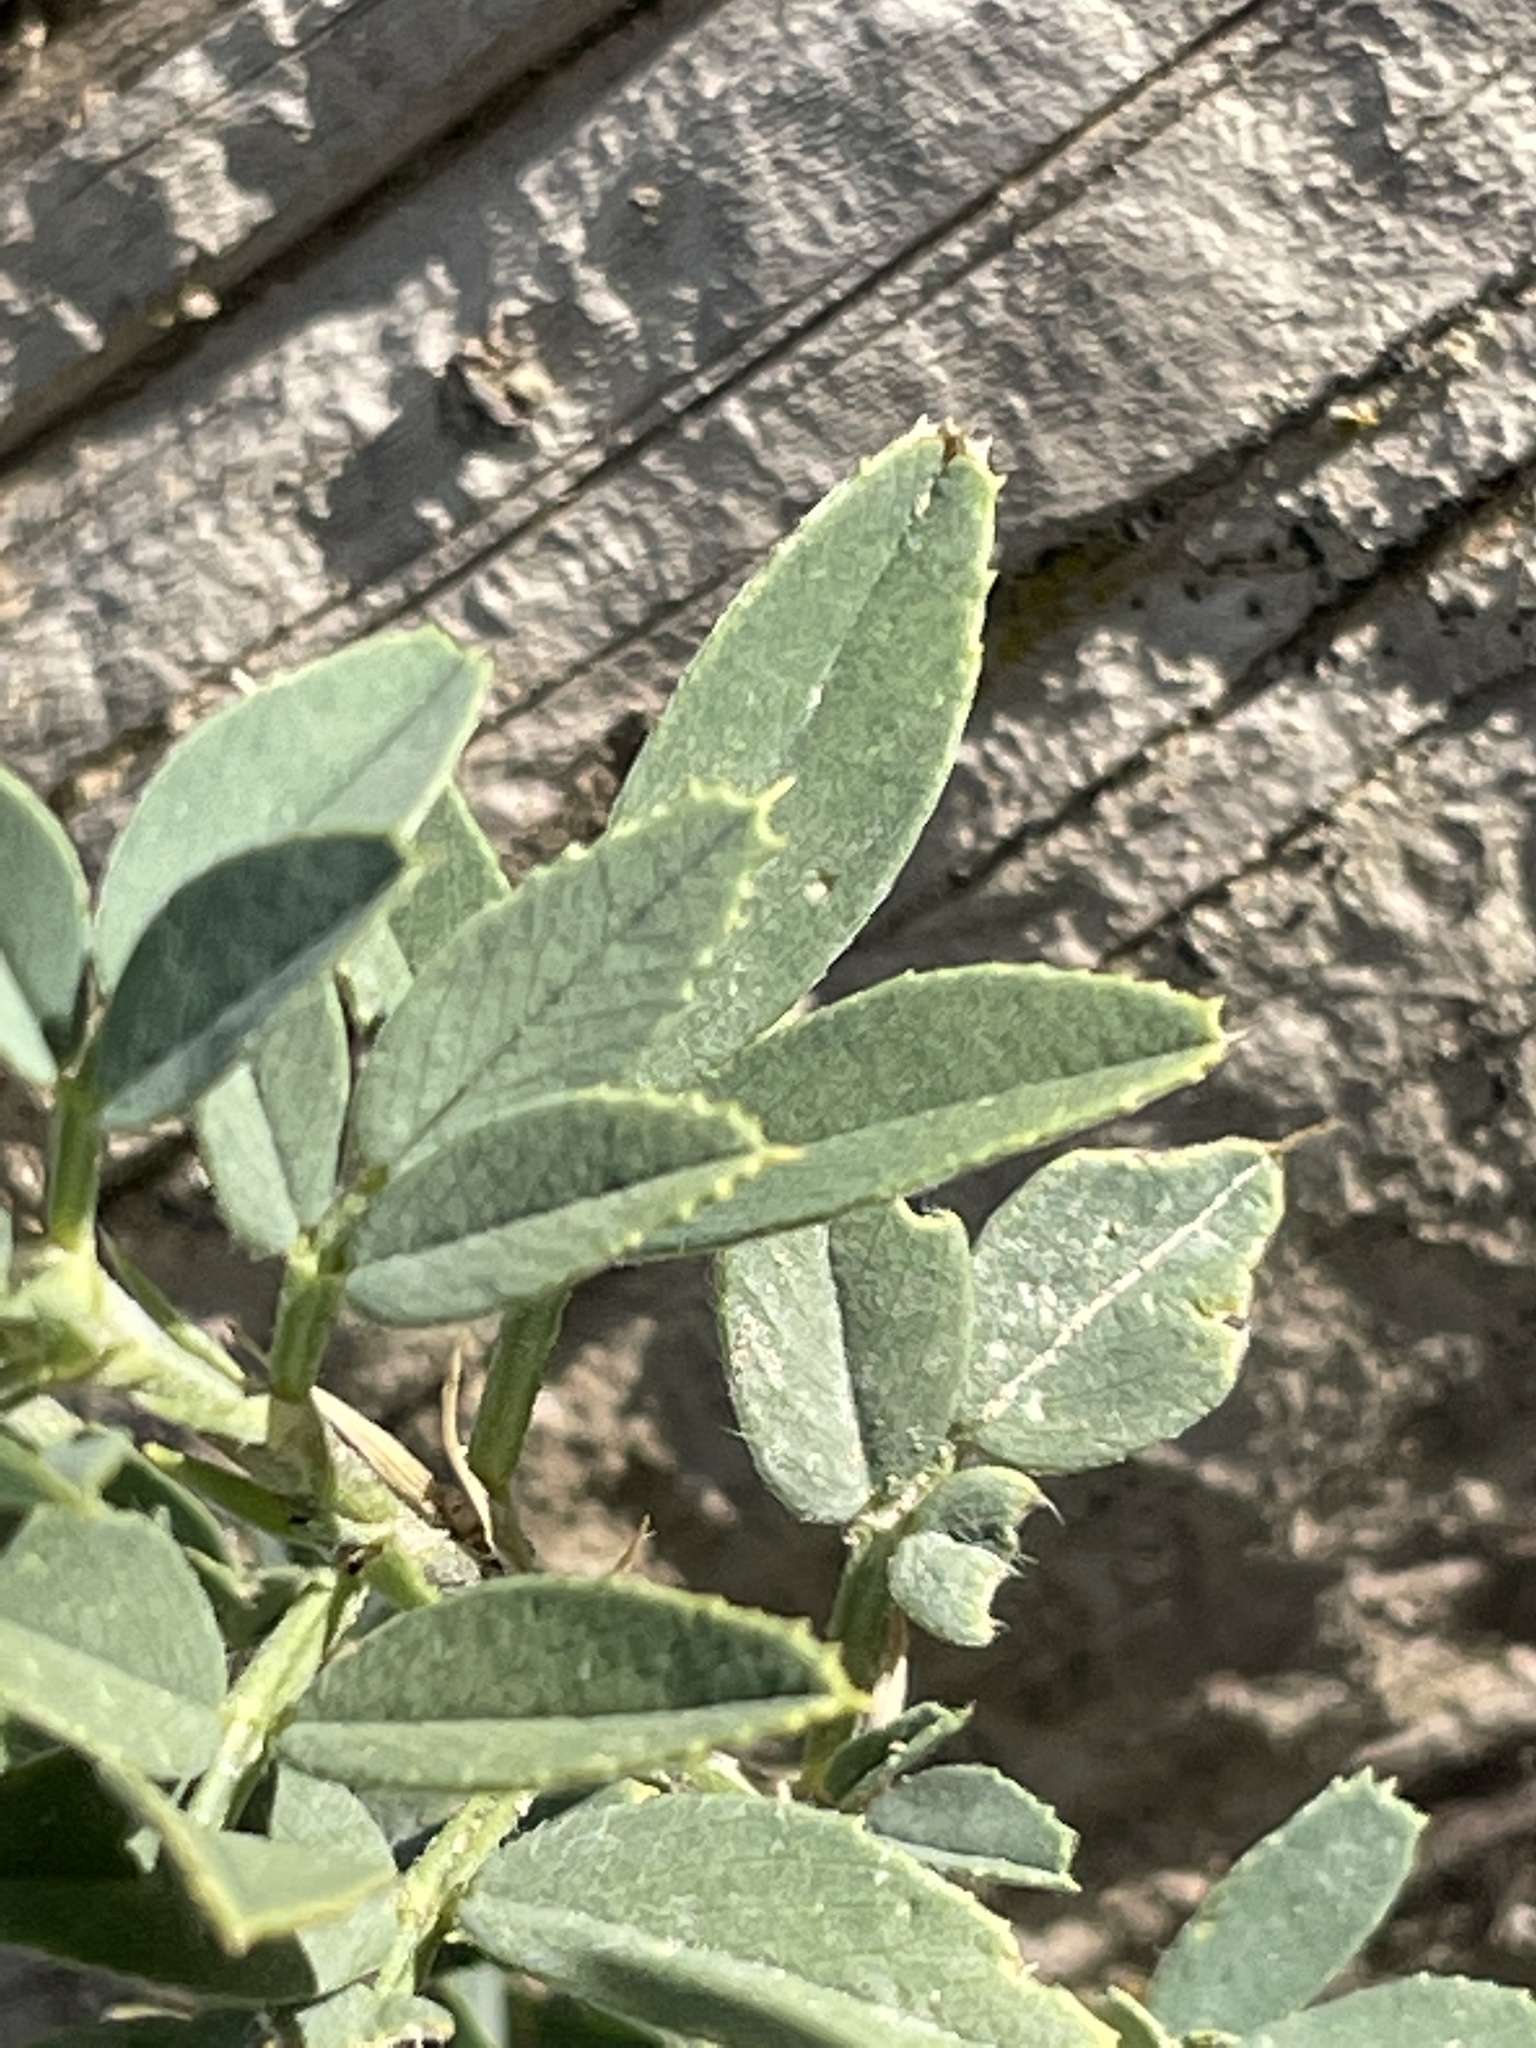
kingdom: Plantae
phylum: Tracheophyta
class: Magnoliopsida
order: Fabales
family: Fabaceae
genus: Medicago
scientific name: Medicago sativa
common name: Alfalfa
